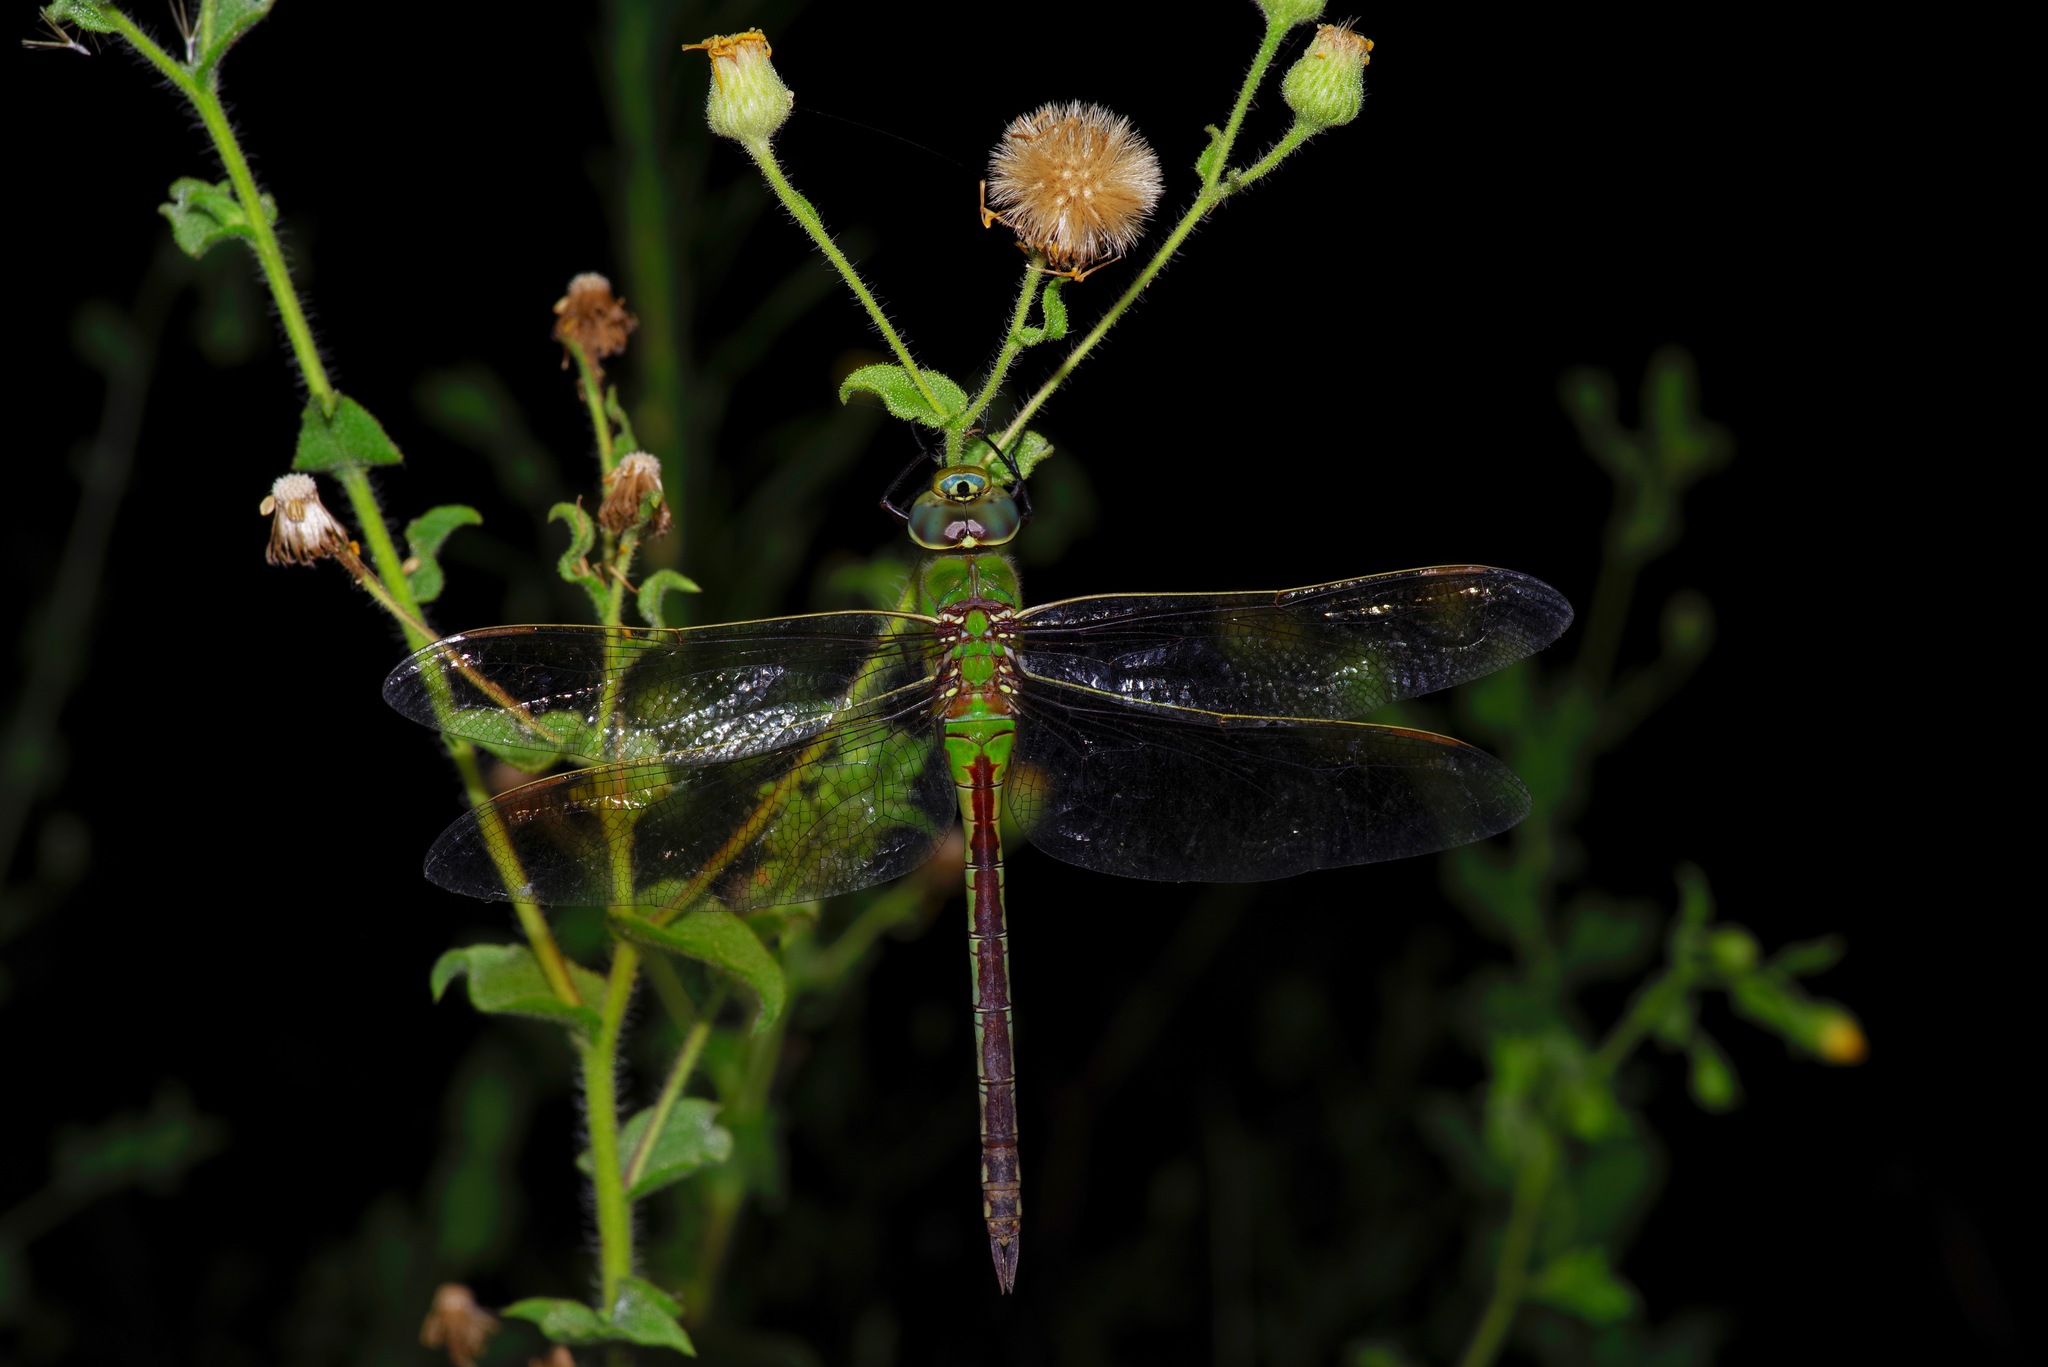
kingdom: Animalia
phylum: Arthropoda
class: Insecta
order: Odonata
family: Aeshnidae
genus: Anax
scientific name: Anax junius
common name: Common green darner
